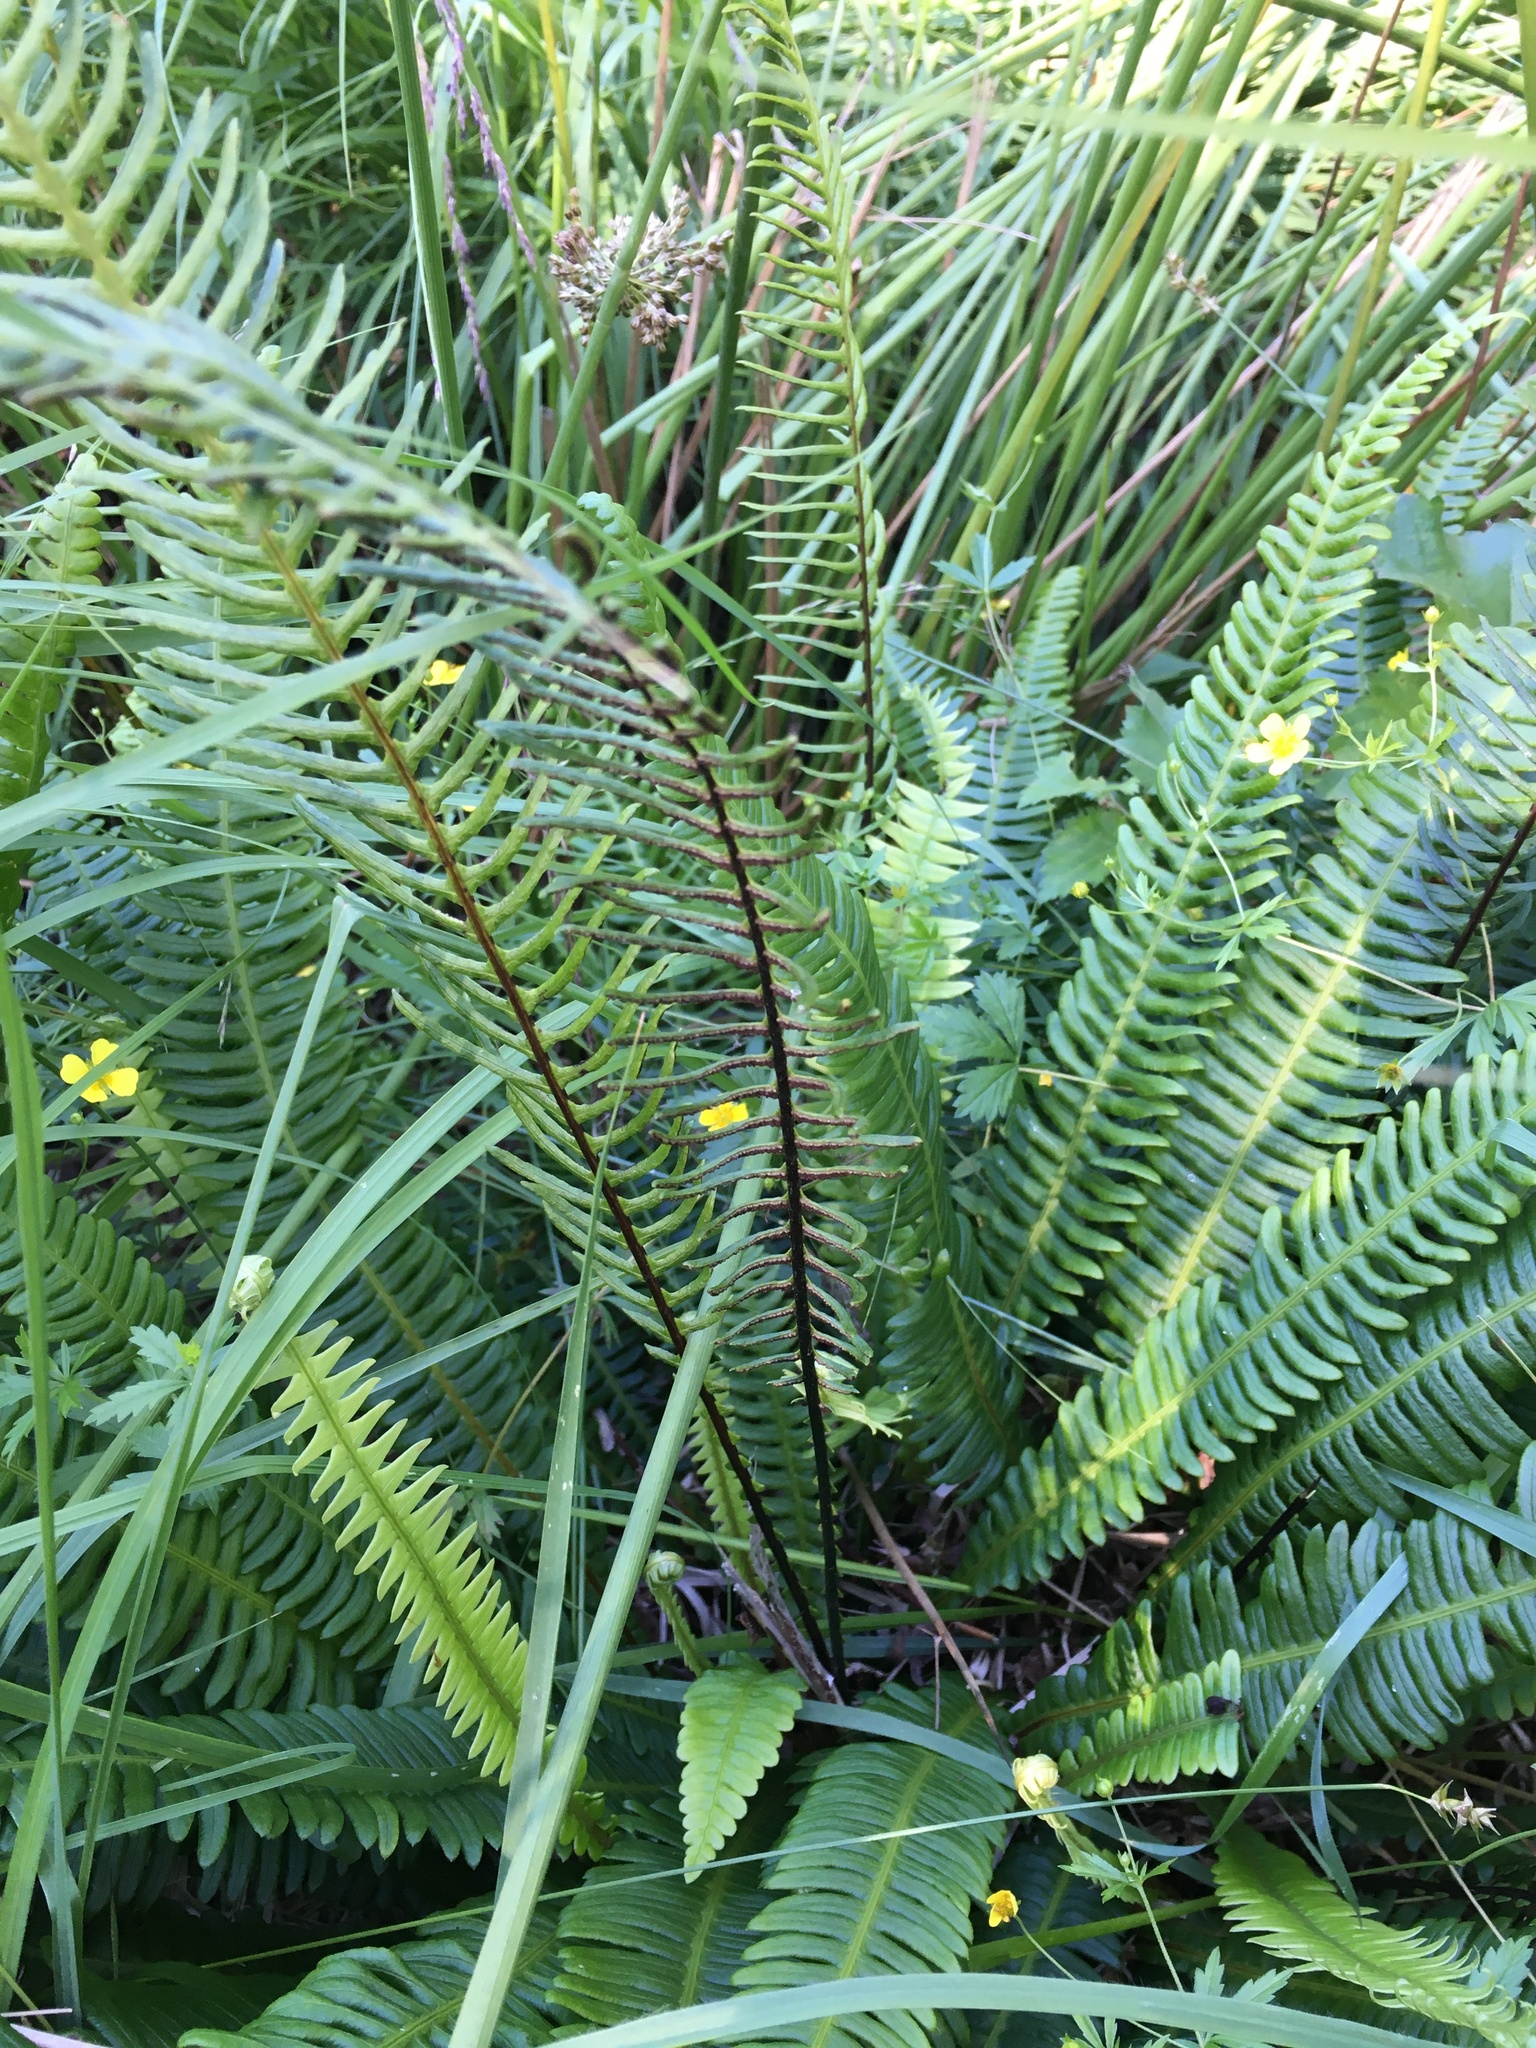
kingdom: Plantae
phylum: Tracheophyta
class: Polypodiopsida
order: Polypodiales
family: Blechnaceae
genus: Struthiopteris
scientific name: Struthiopteris spicant
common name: Deer fern
